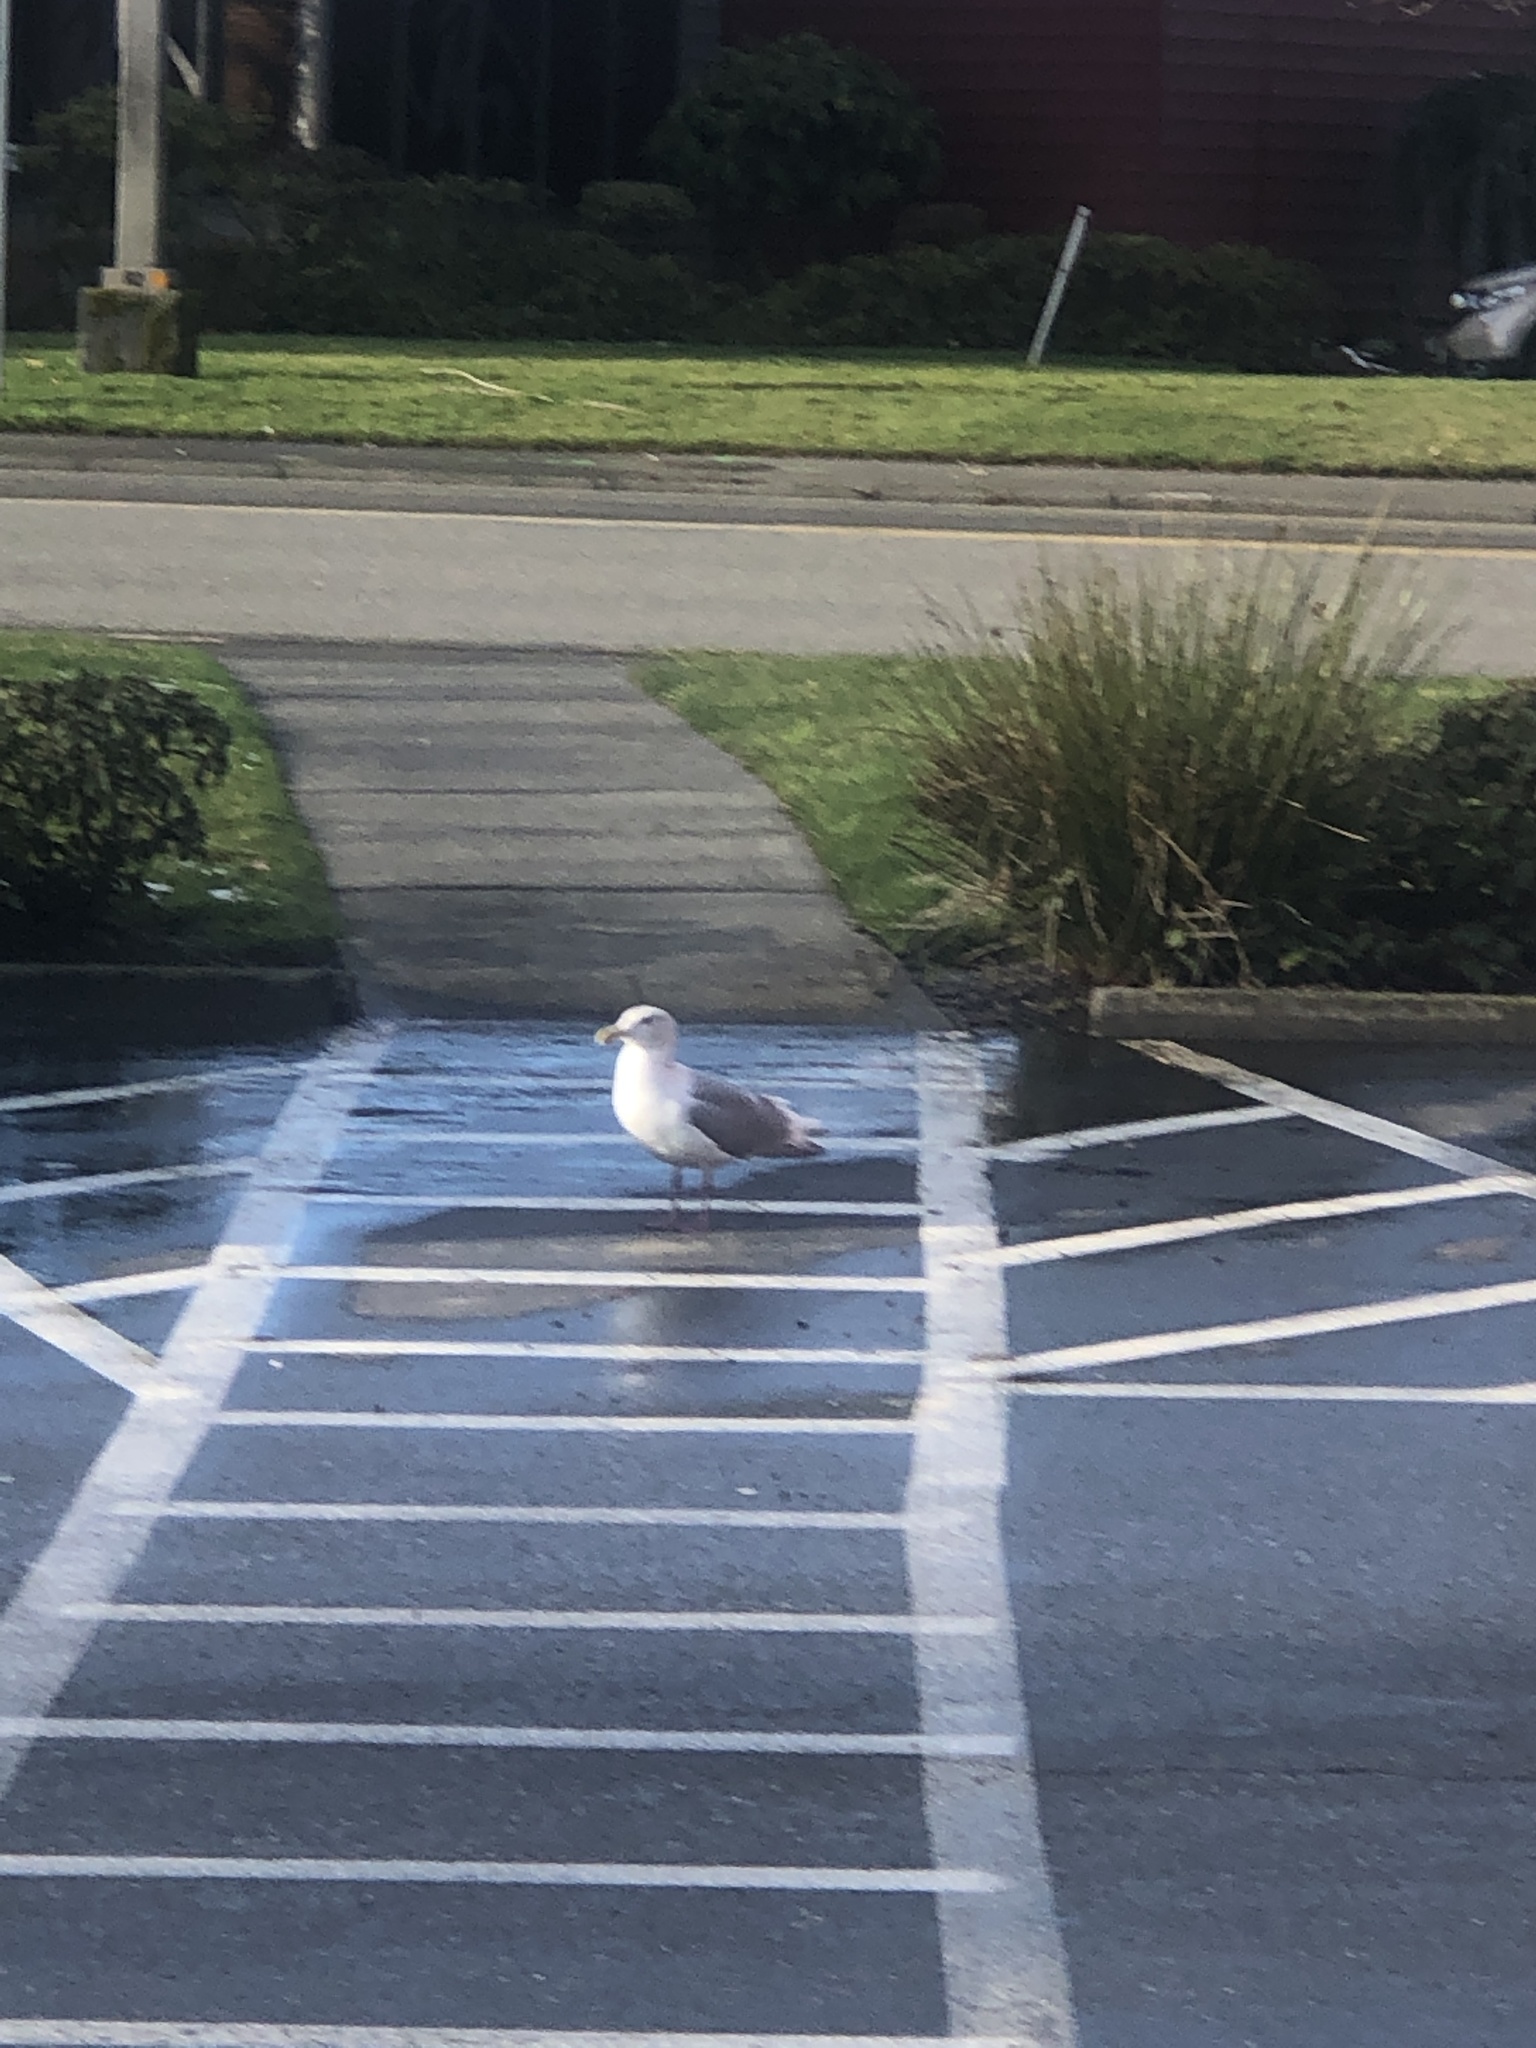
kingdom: Animalia
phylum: Chordata
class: Aves
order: Charadriiformes
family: Laridae
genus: Larus
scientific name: Larus
